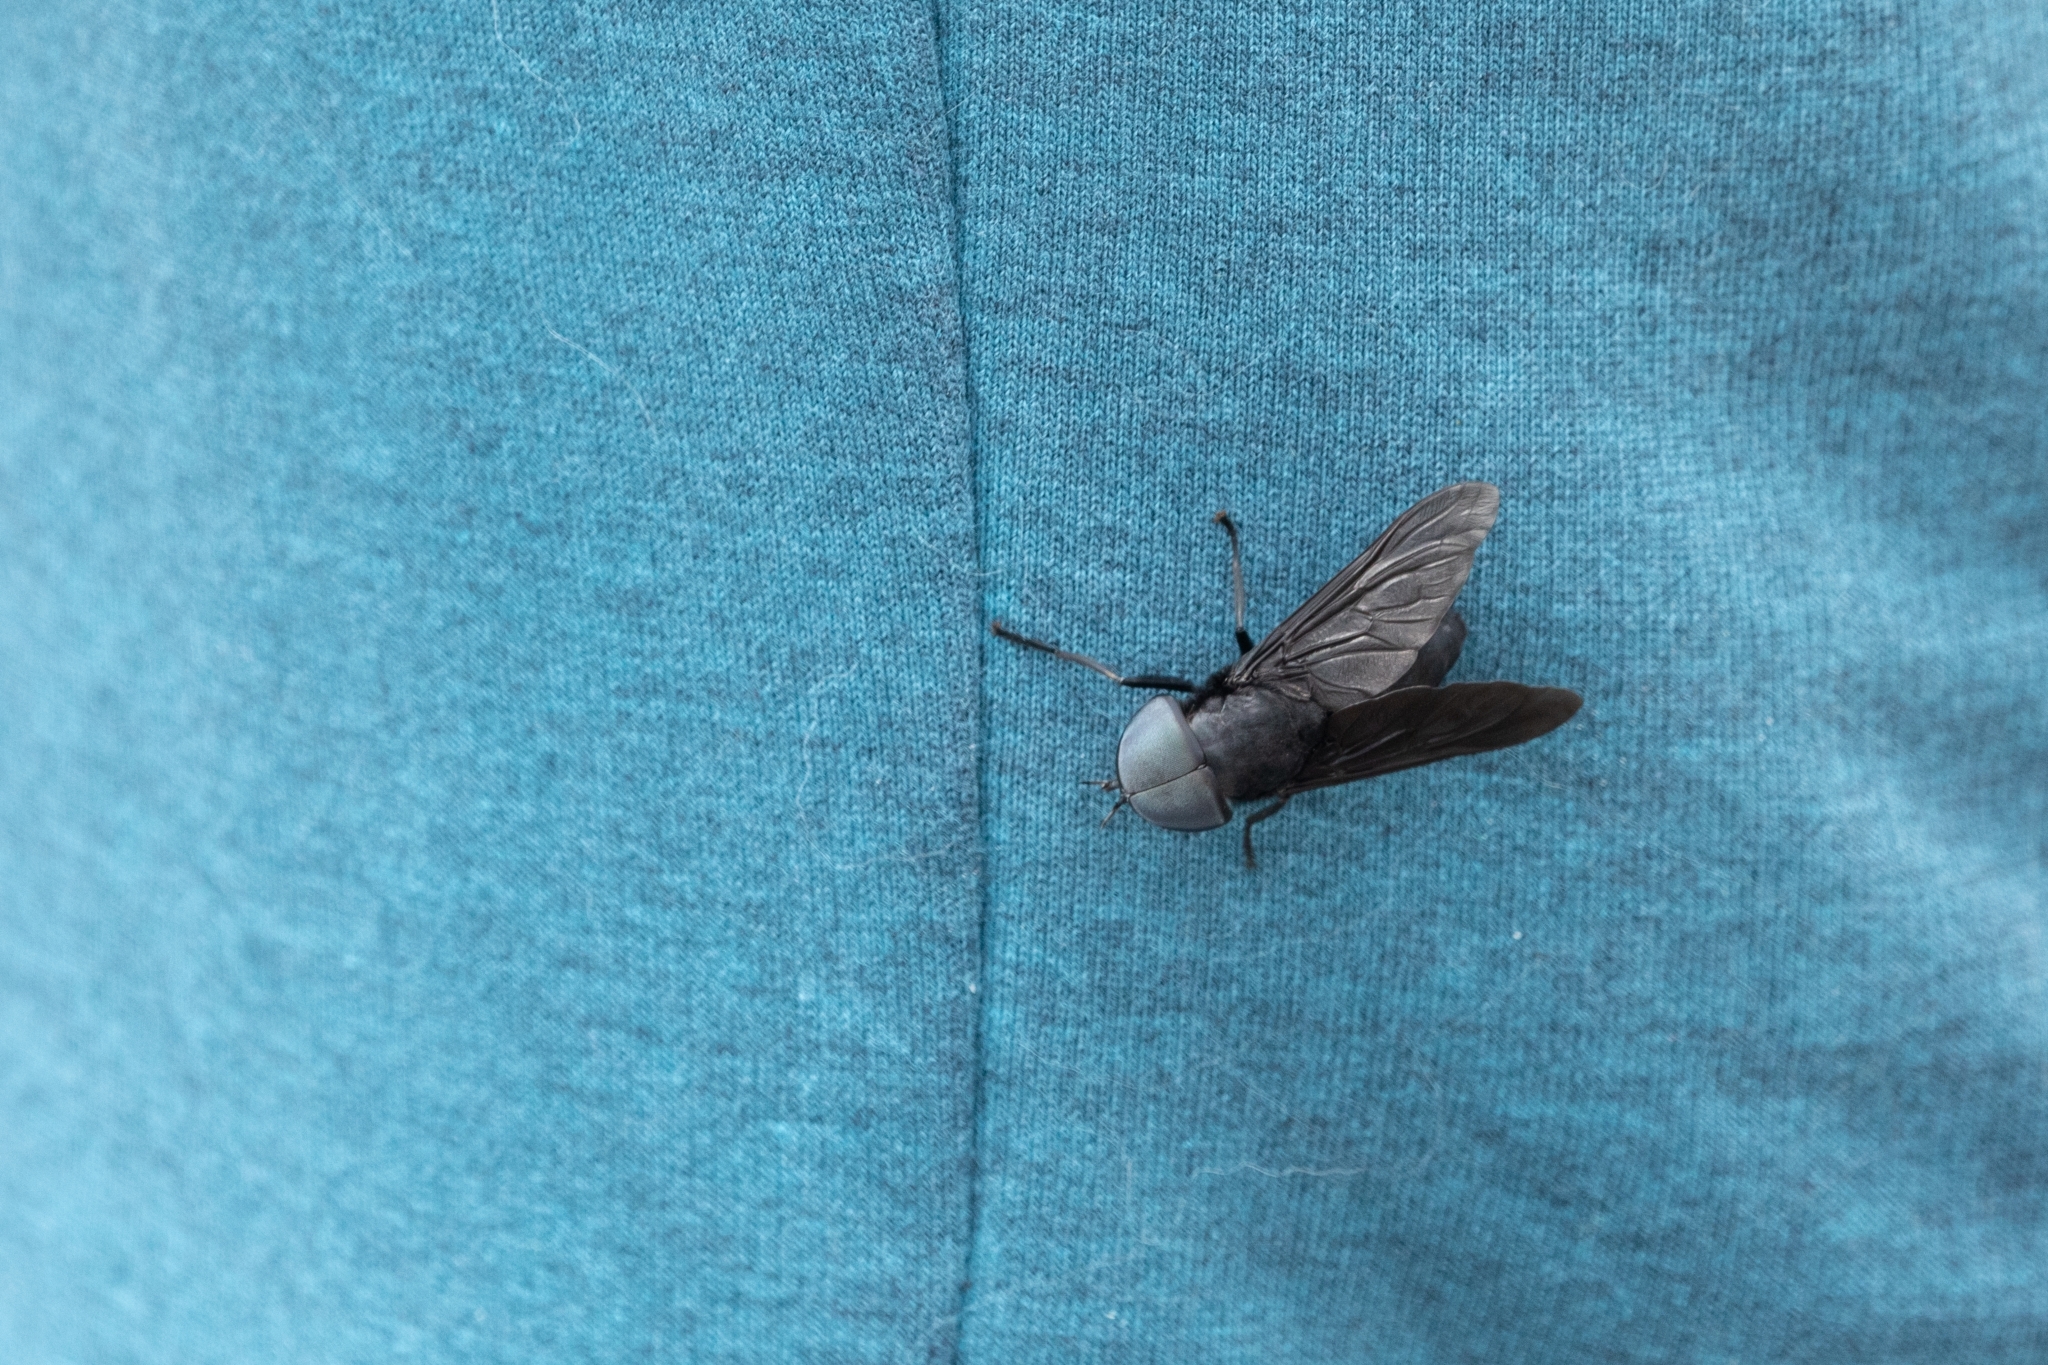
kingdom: Animalia
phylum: Arthropoda
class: Insecta
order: Diptera
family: Tabanidae
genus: Tabanus
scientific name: Tabanus atratus
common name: Black horse fly
